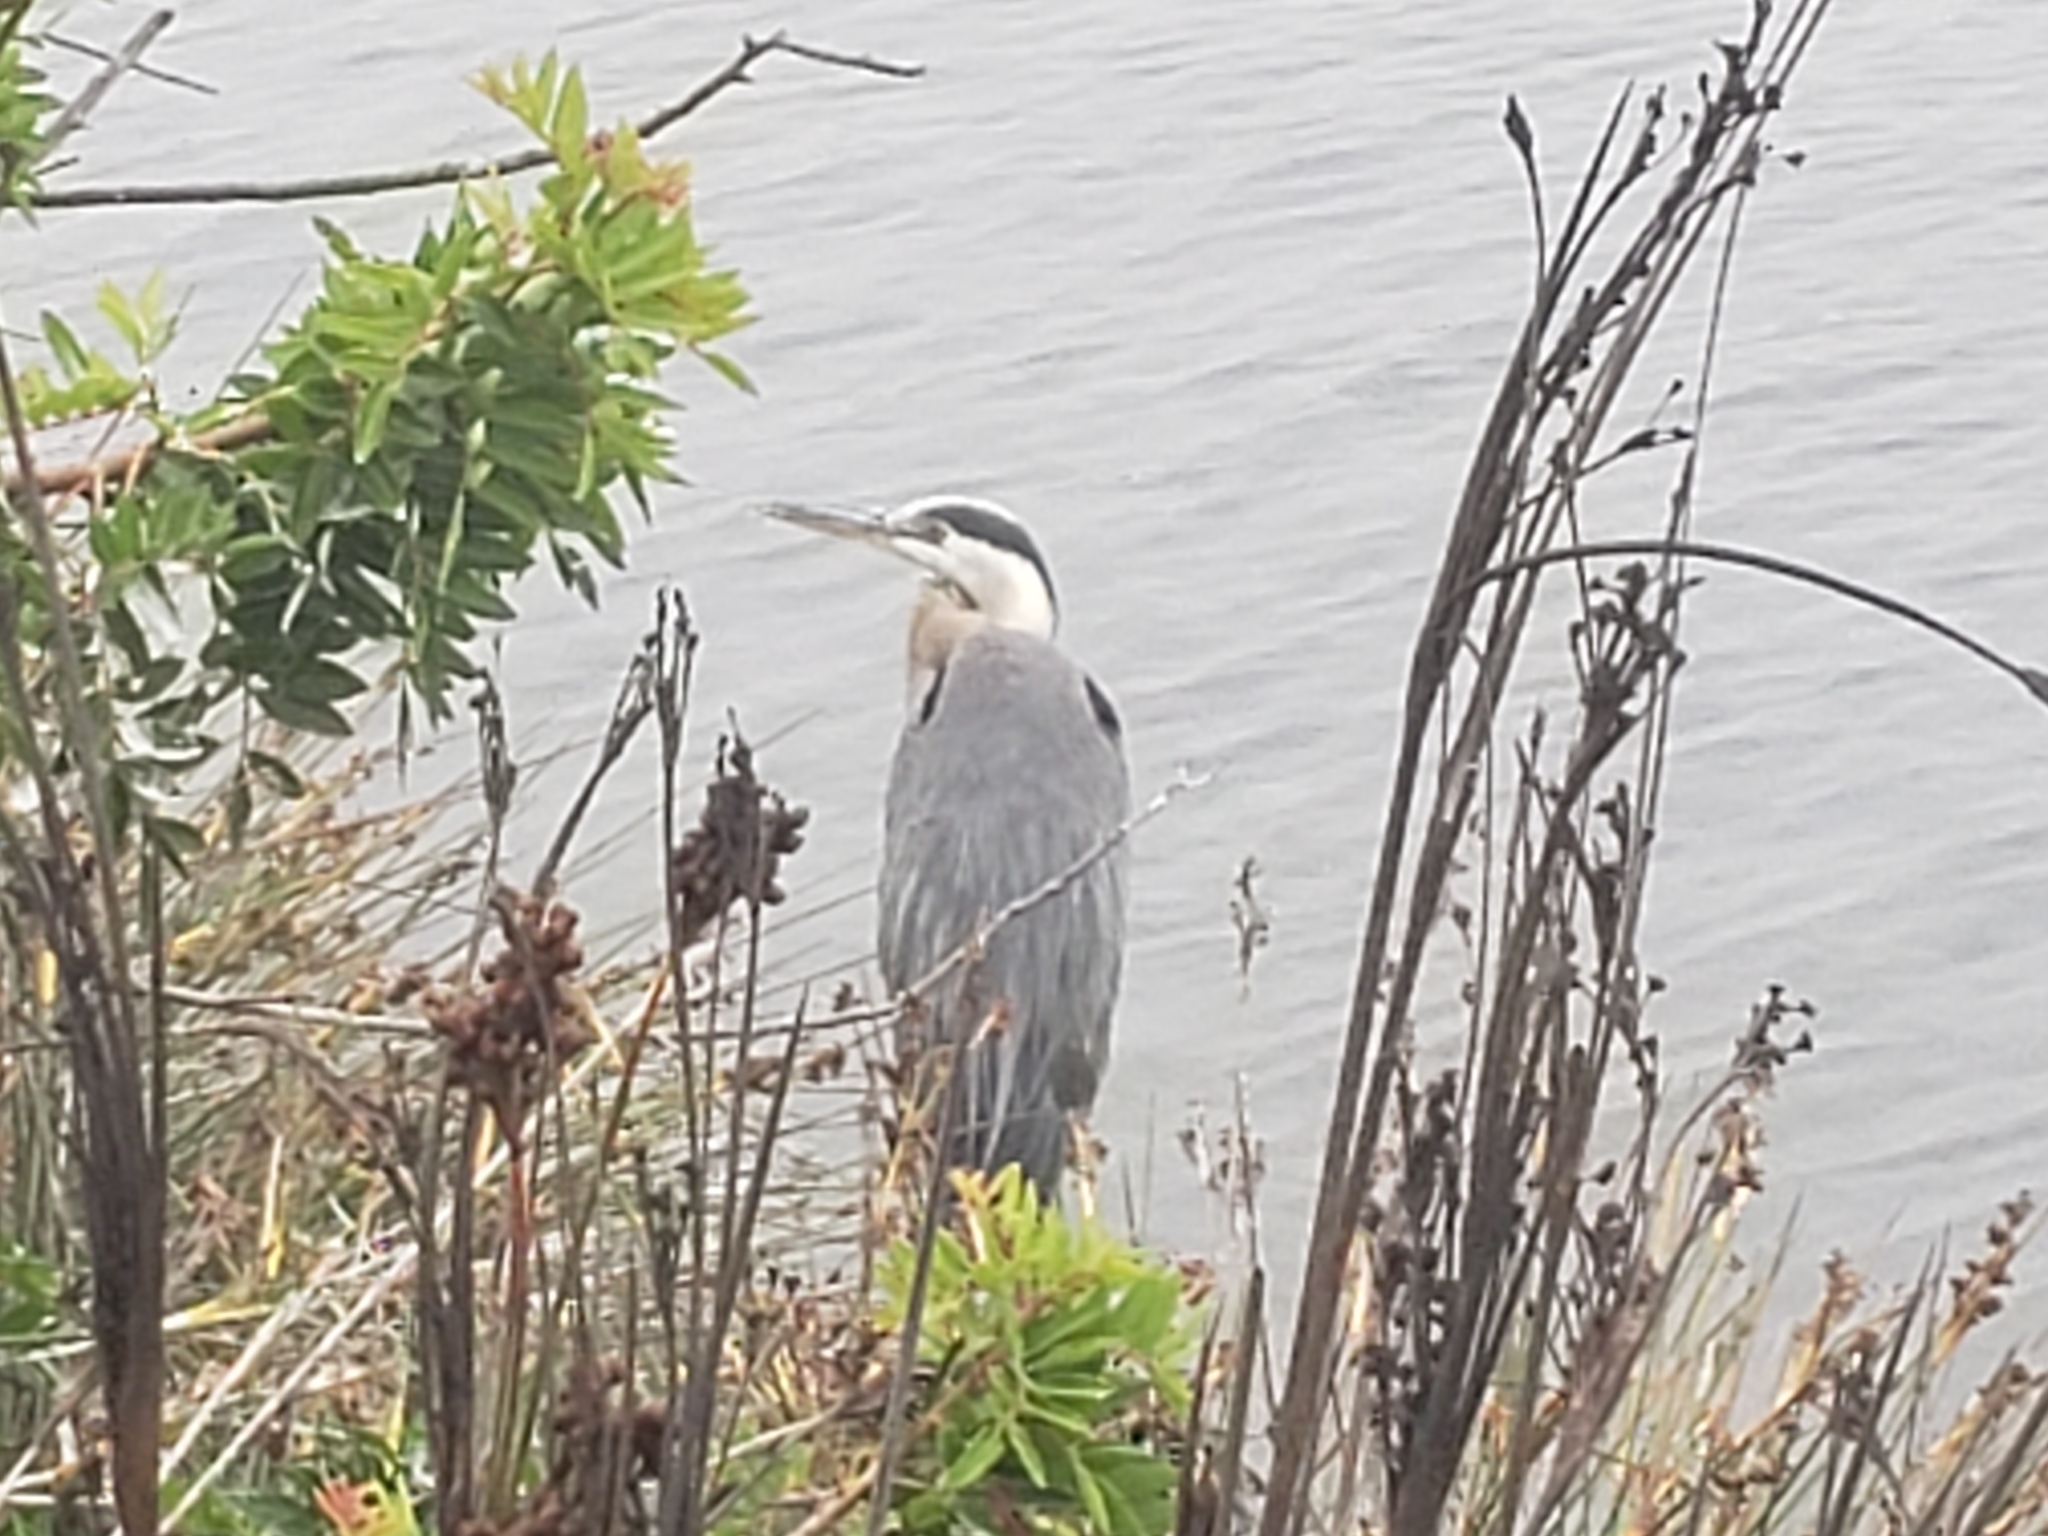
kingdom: Animalia
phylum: Chordata
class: Aves
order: Pelecaniformes
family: Ardeidae
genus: Ardea
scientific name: Ardea herodias
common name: Great blue heron
